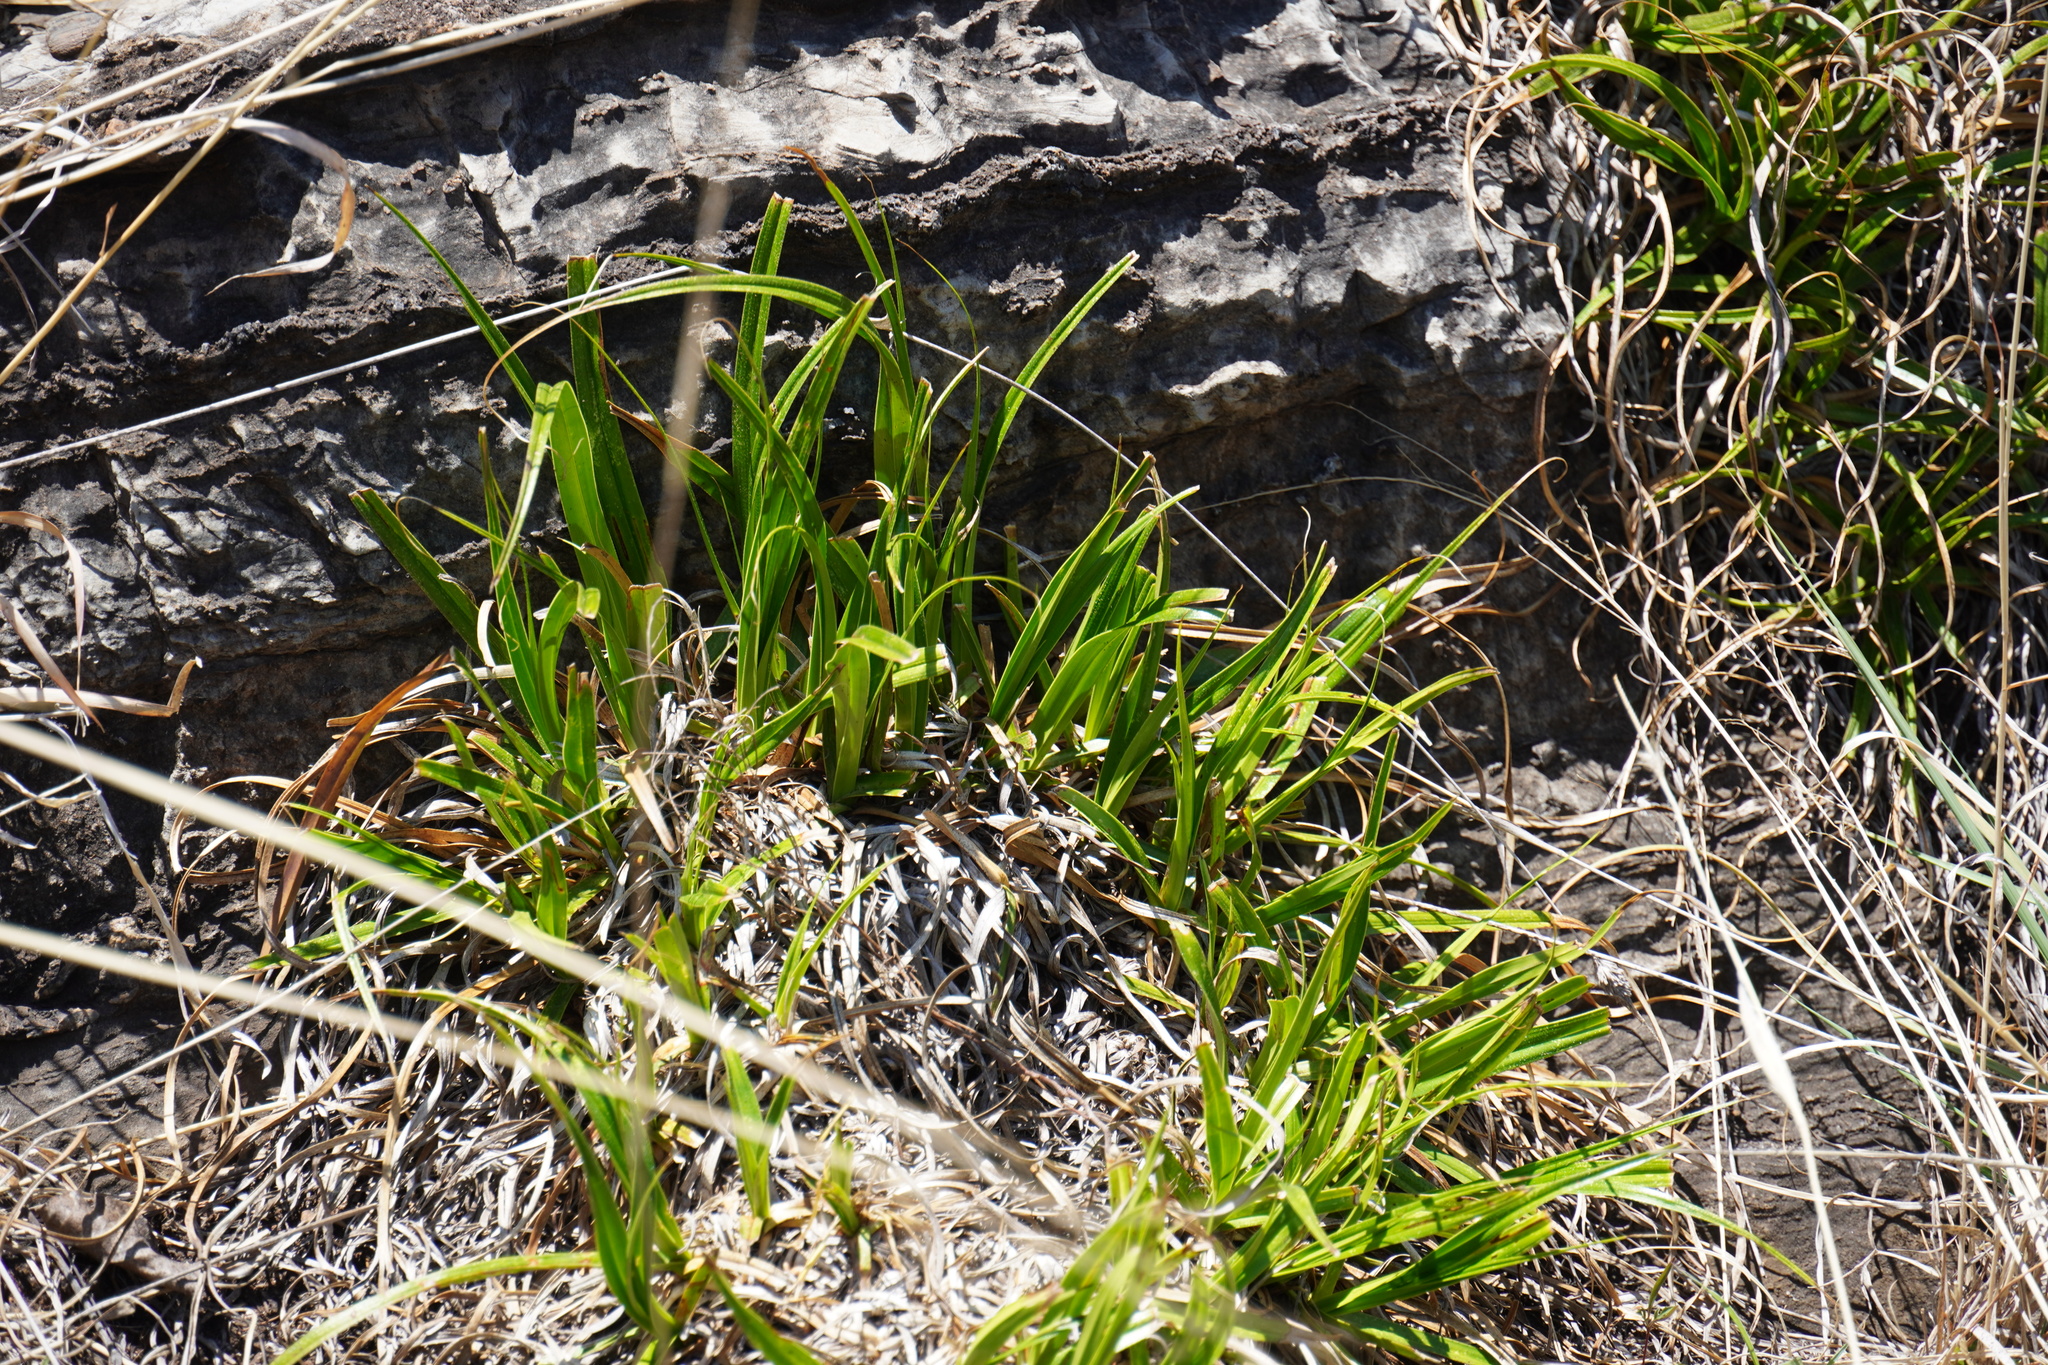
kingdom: Plantae
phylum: Tracheophyta
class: Liliopsida
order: Pandanales
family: Velloziaceae
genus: Xerophyta
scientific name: Xerophyta adendorffii
